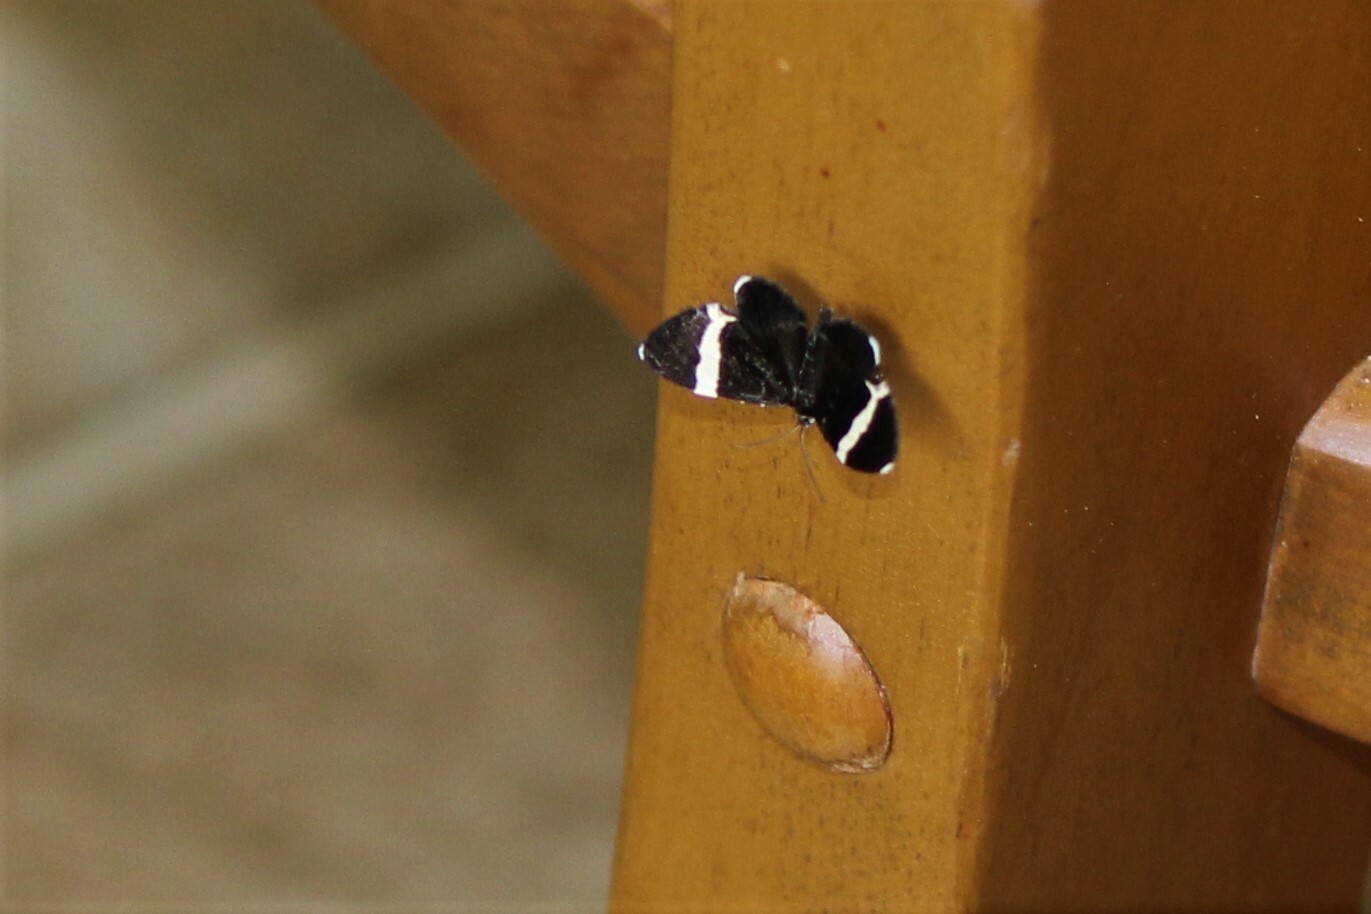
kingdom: Animalia
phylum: Arthropoda
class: Insecta
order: Lepidoptera
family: Geometridae
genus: Trichodezia
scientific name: Trichodezia albovittata
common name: White striped black
